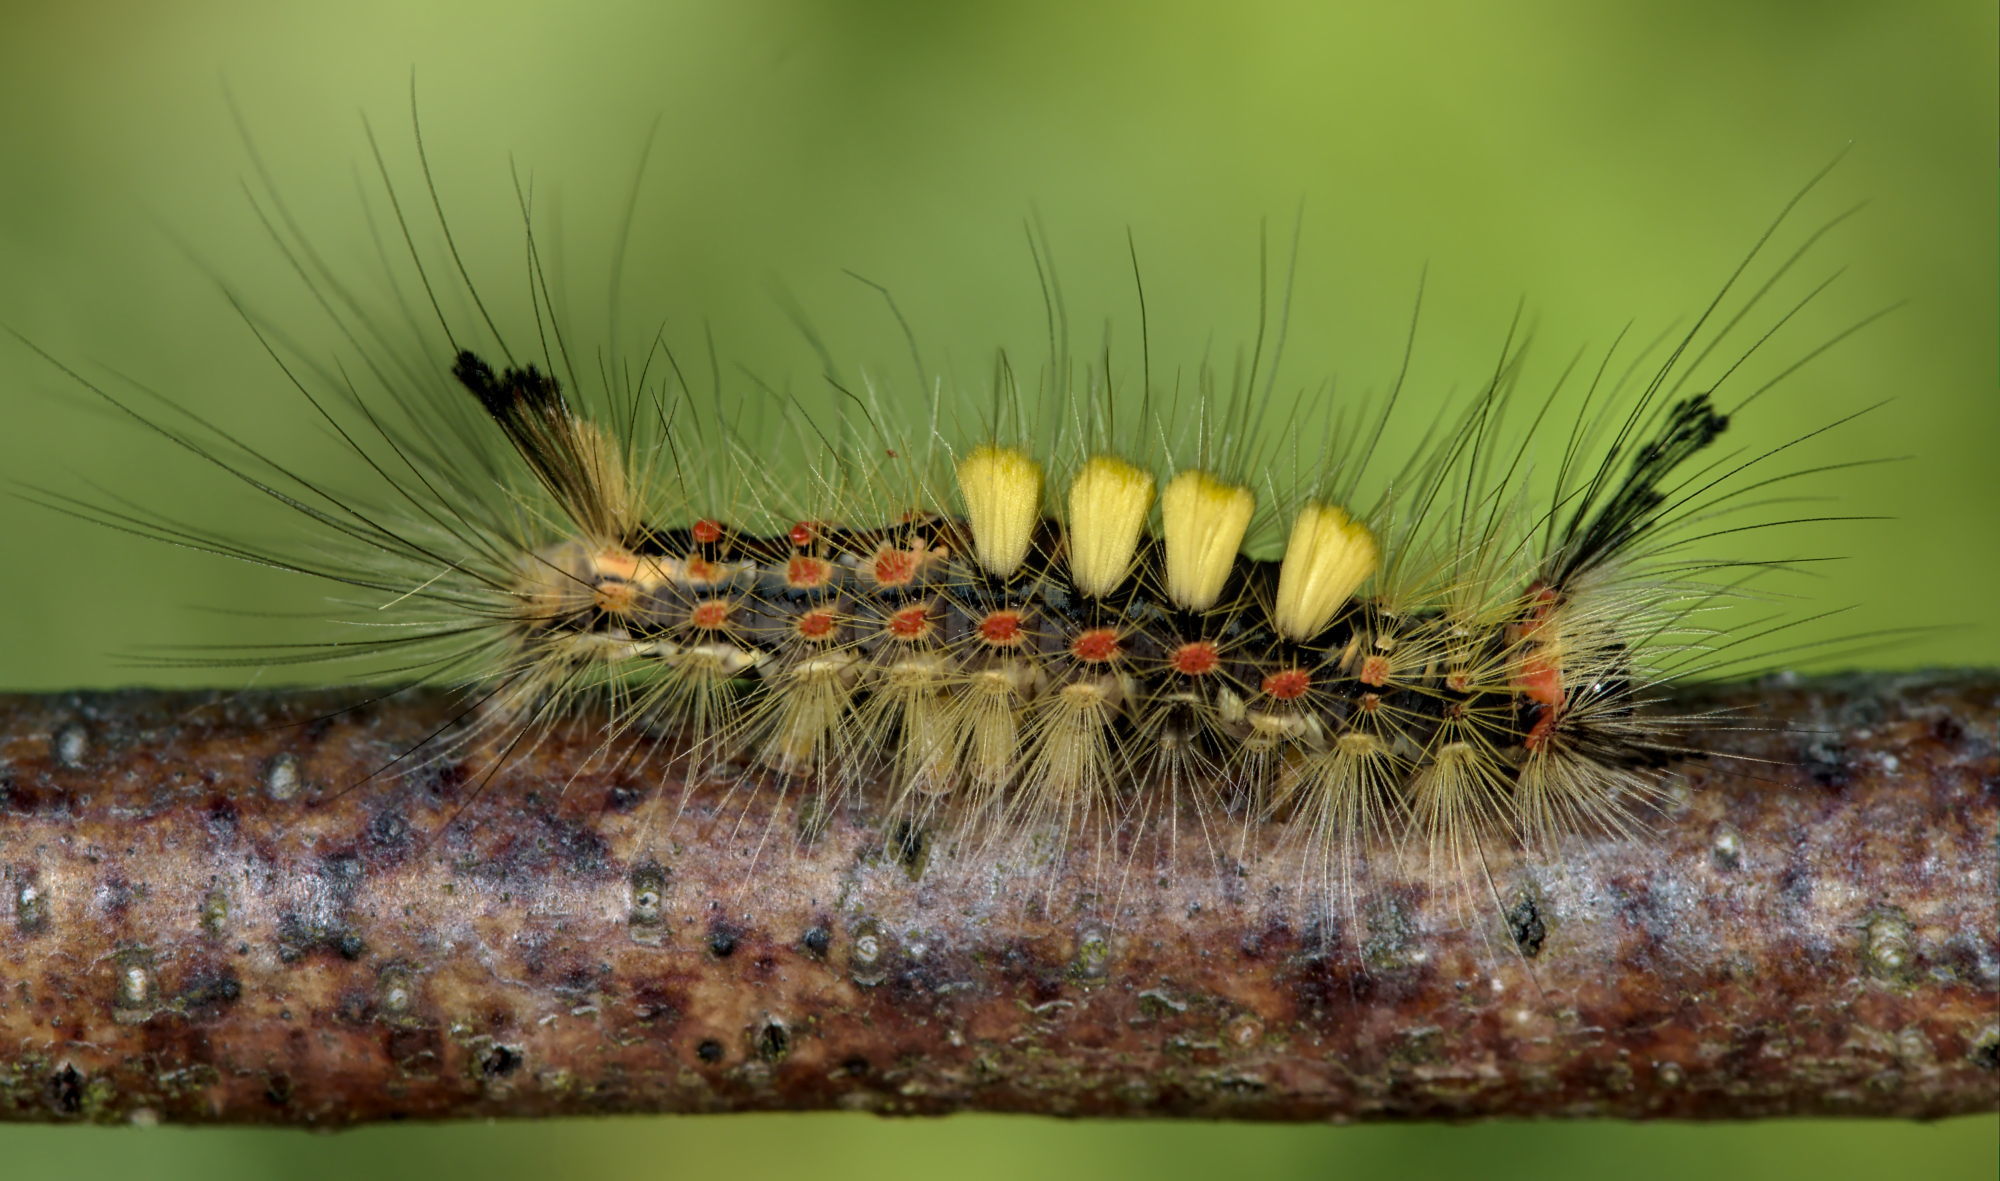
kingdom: Animalia
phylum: Arthropoda
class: Insecta
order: Lepidoptera
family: Erebidae
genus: Orgyia
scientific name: Orgyia antiqua
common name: Vapourer
